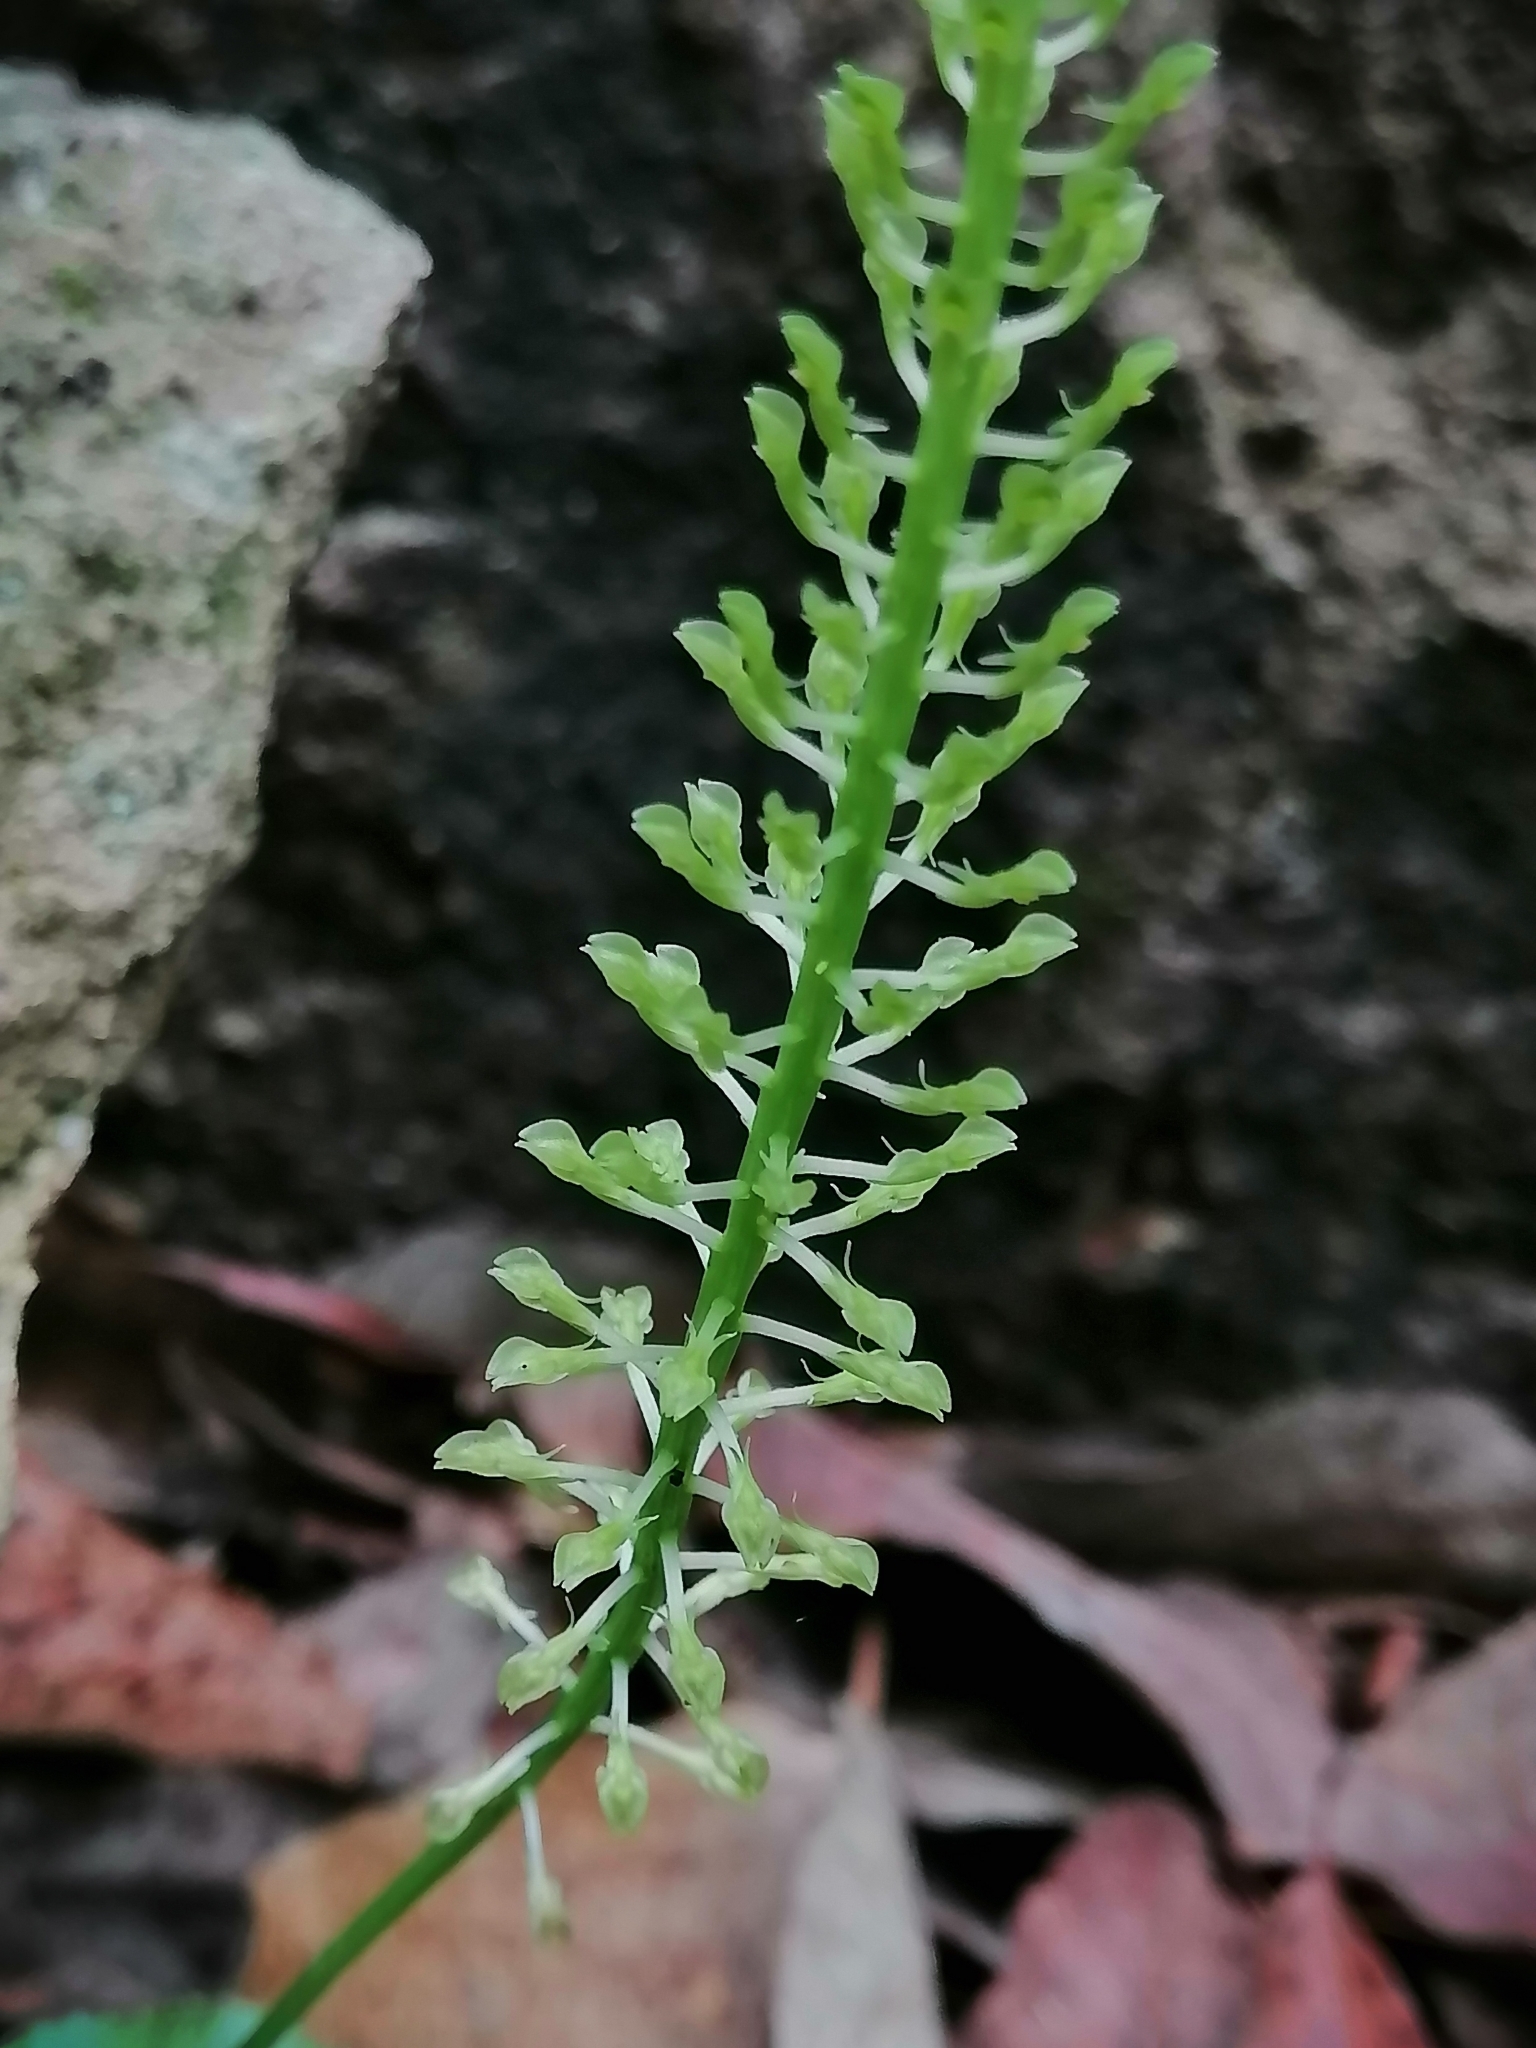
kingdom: Plantae
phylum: Tracheophyta
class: Liliopsida
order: Asparagales
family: Orchidaceae
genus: Malaxis
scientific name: Malaxis maianthemifolia
